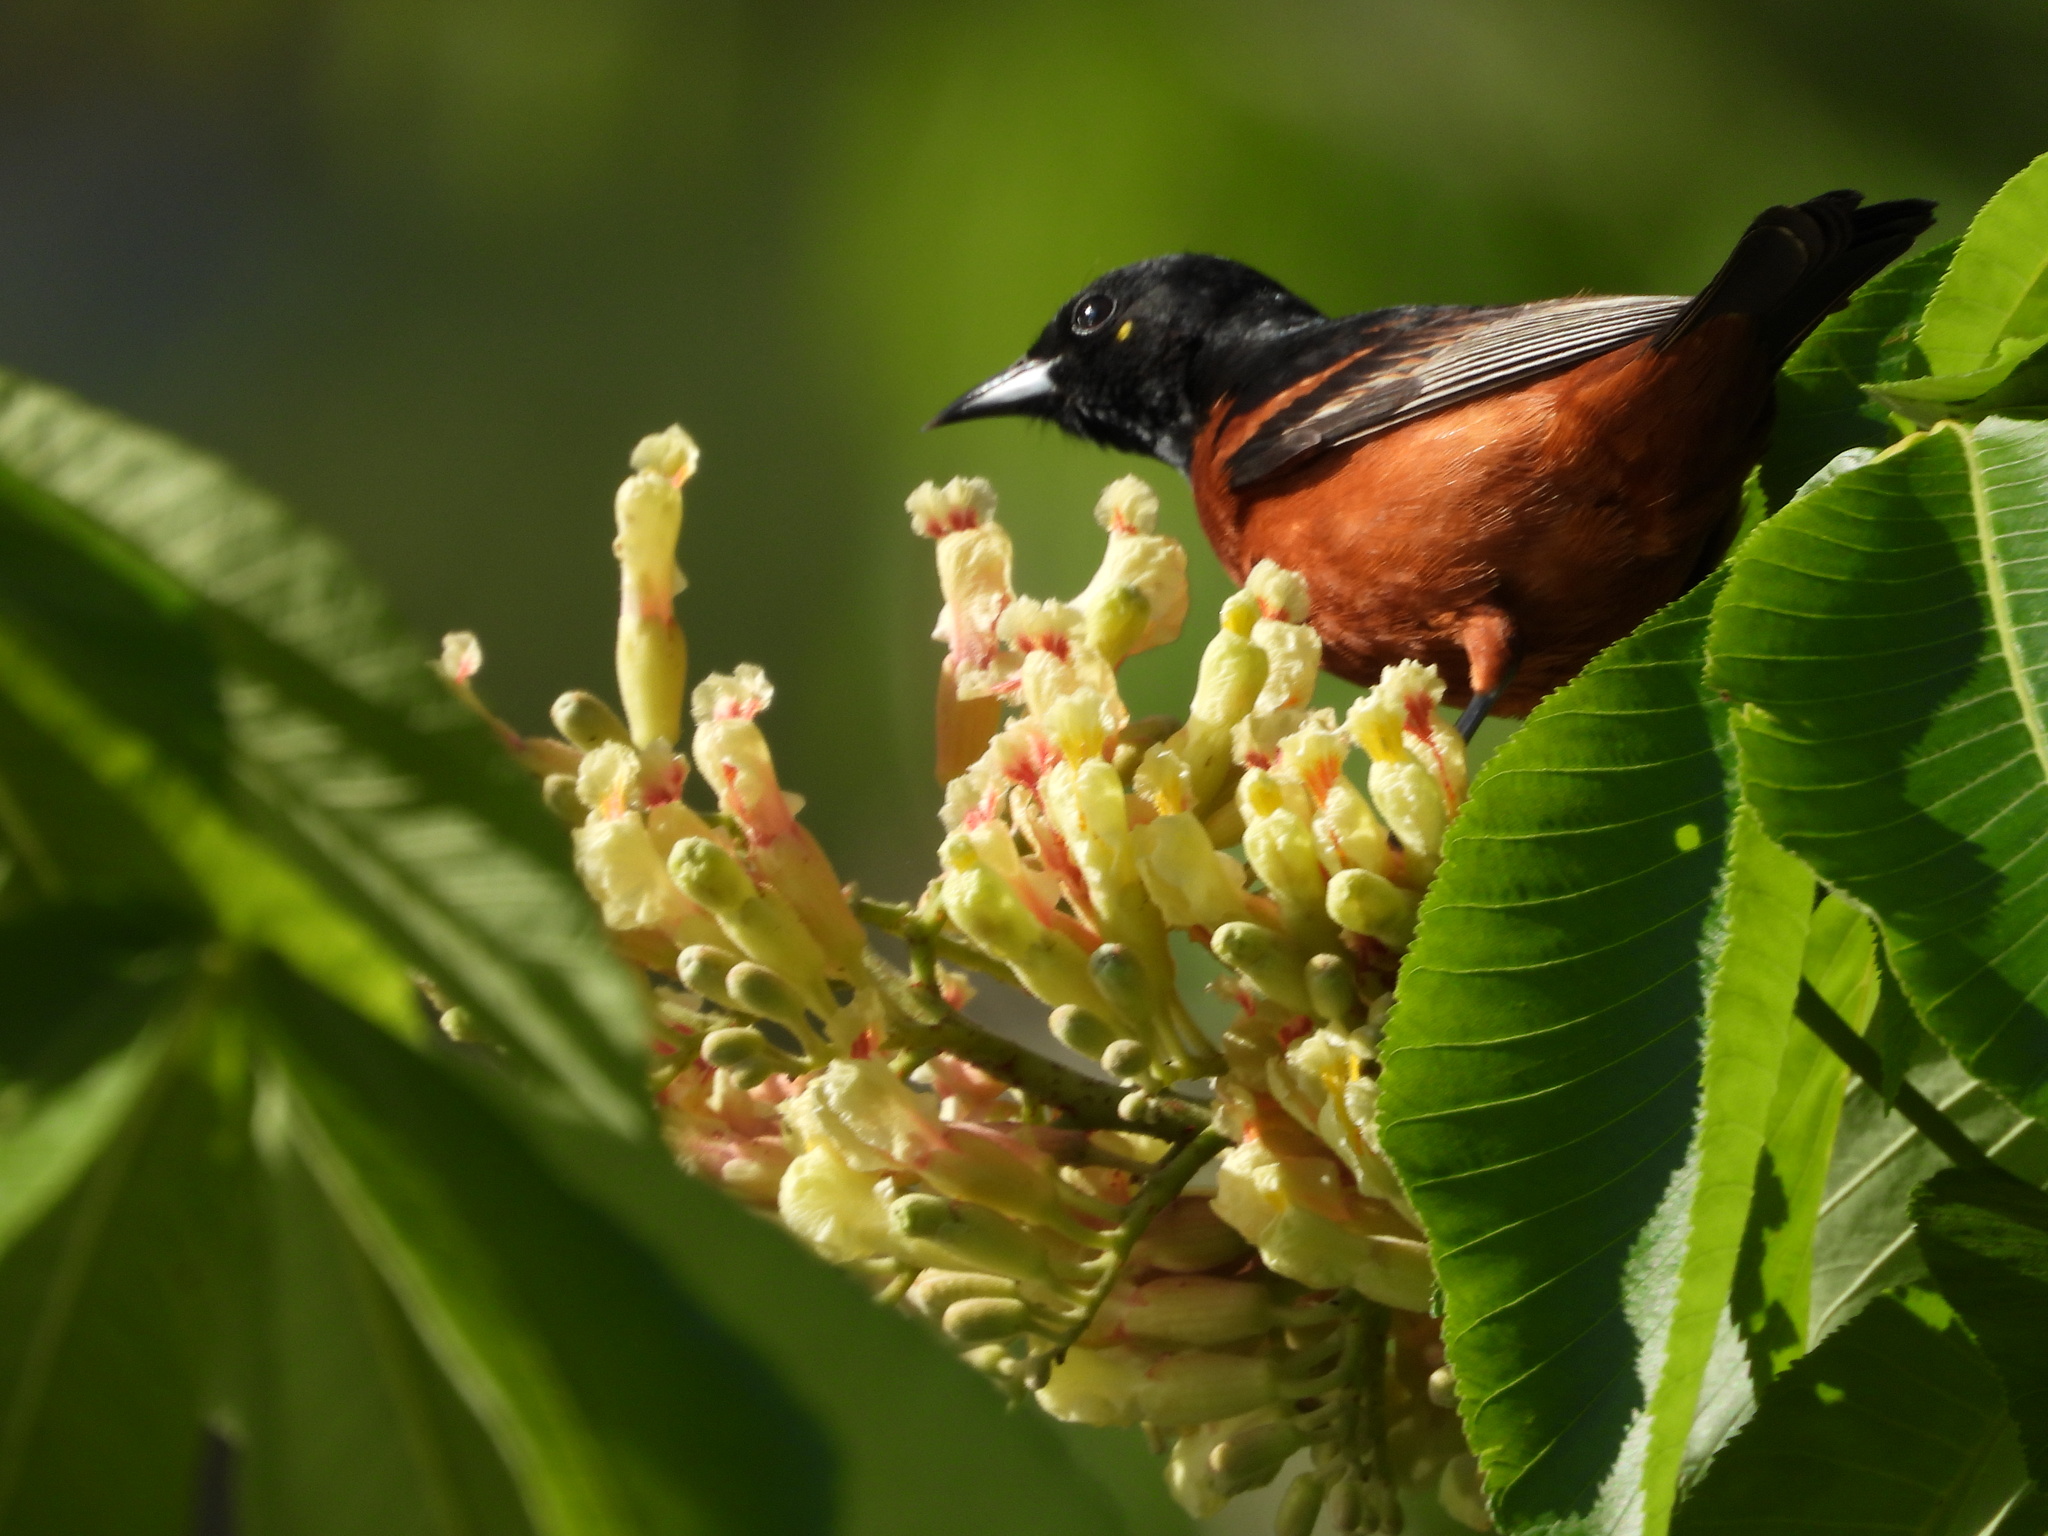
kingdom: Animalia
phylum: Chordata
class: Aves
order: Passeriformes
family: Icteridae
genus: Icterus
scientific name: Icterus spurius
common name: Orchard oriole
